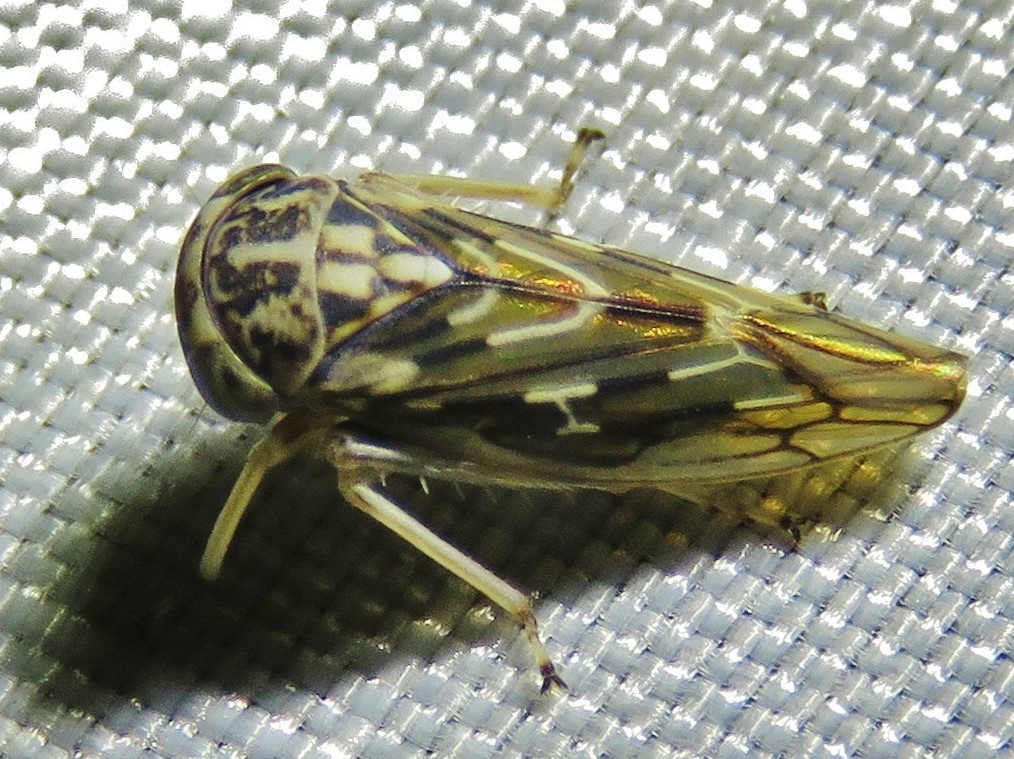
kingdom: Animalia
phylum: Arthropoda
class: Insecta
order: Hemiptera
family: Cicadellidae
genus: Liocratus
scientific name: Liocratus moniliferae
